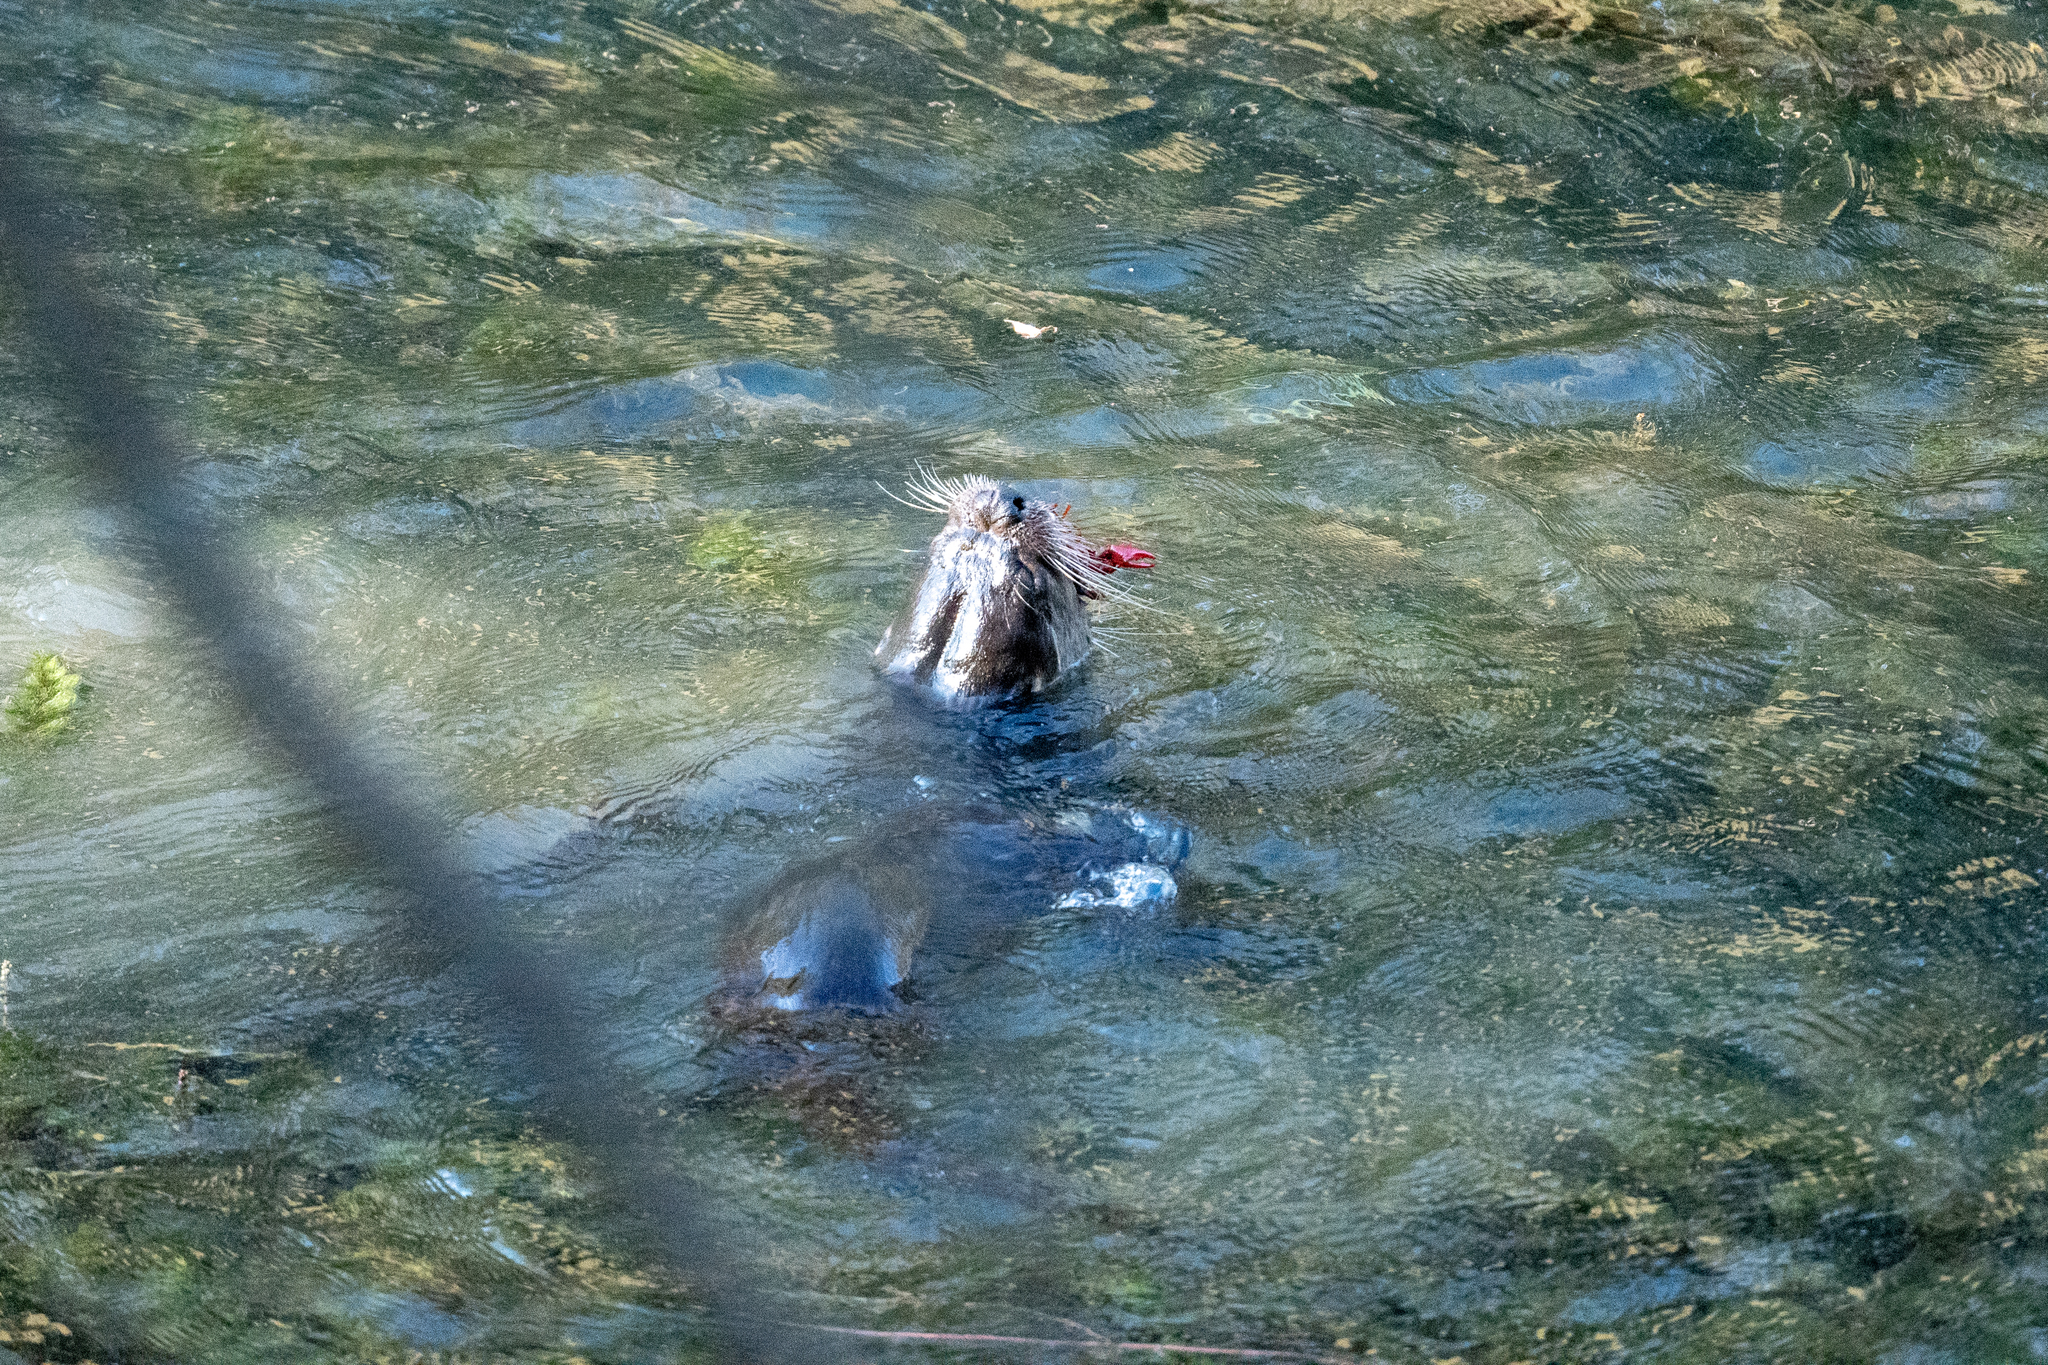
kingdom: Animalia
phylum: Chordata
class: Mammalia
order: Carnivora
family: Mustelidae
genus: Lontra
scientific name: Lontra canadensis
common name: North american river otter
